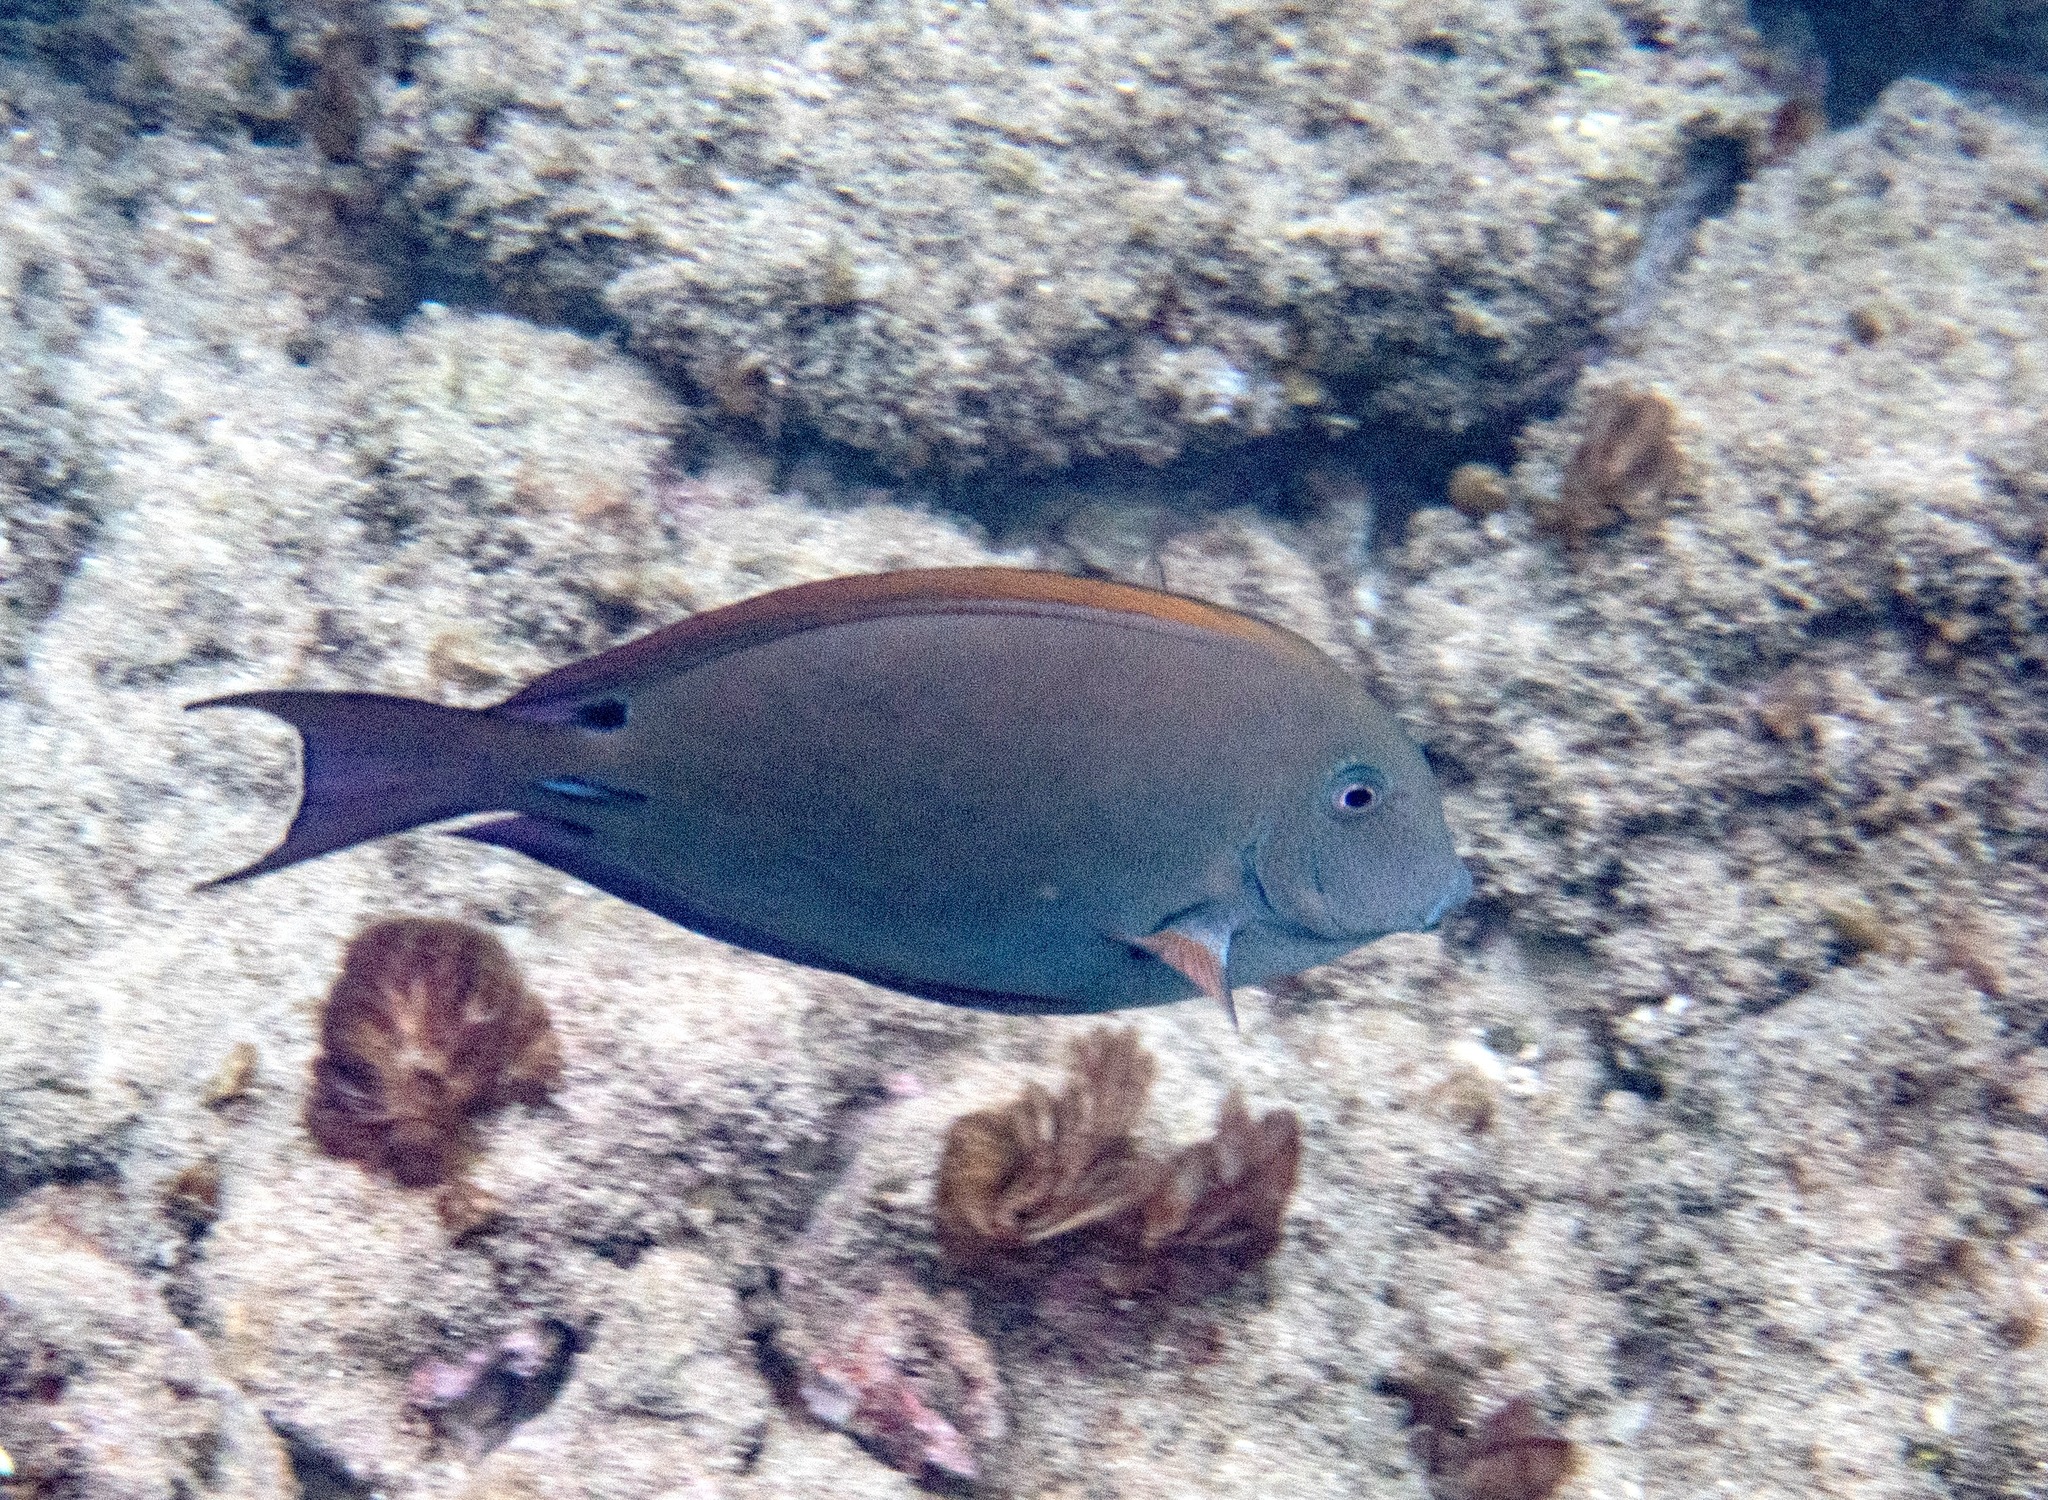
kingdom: Animalia
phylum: Chordata
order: Perciformes
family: Acanthuridae
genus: Acanthurus
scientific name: Acanthurus nigrofuscus
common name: Blackspot surgeonfish
